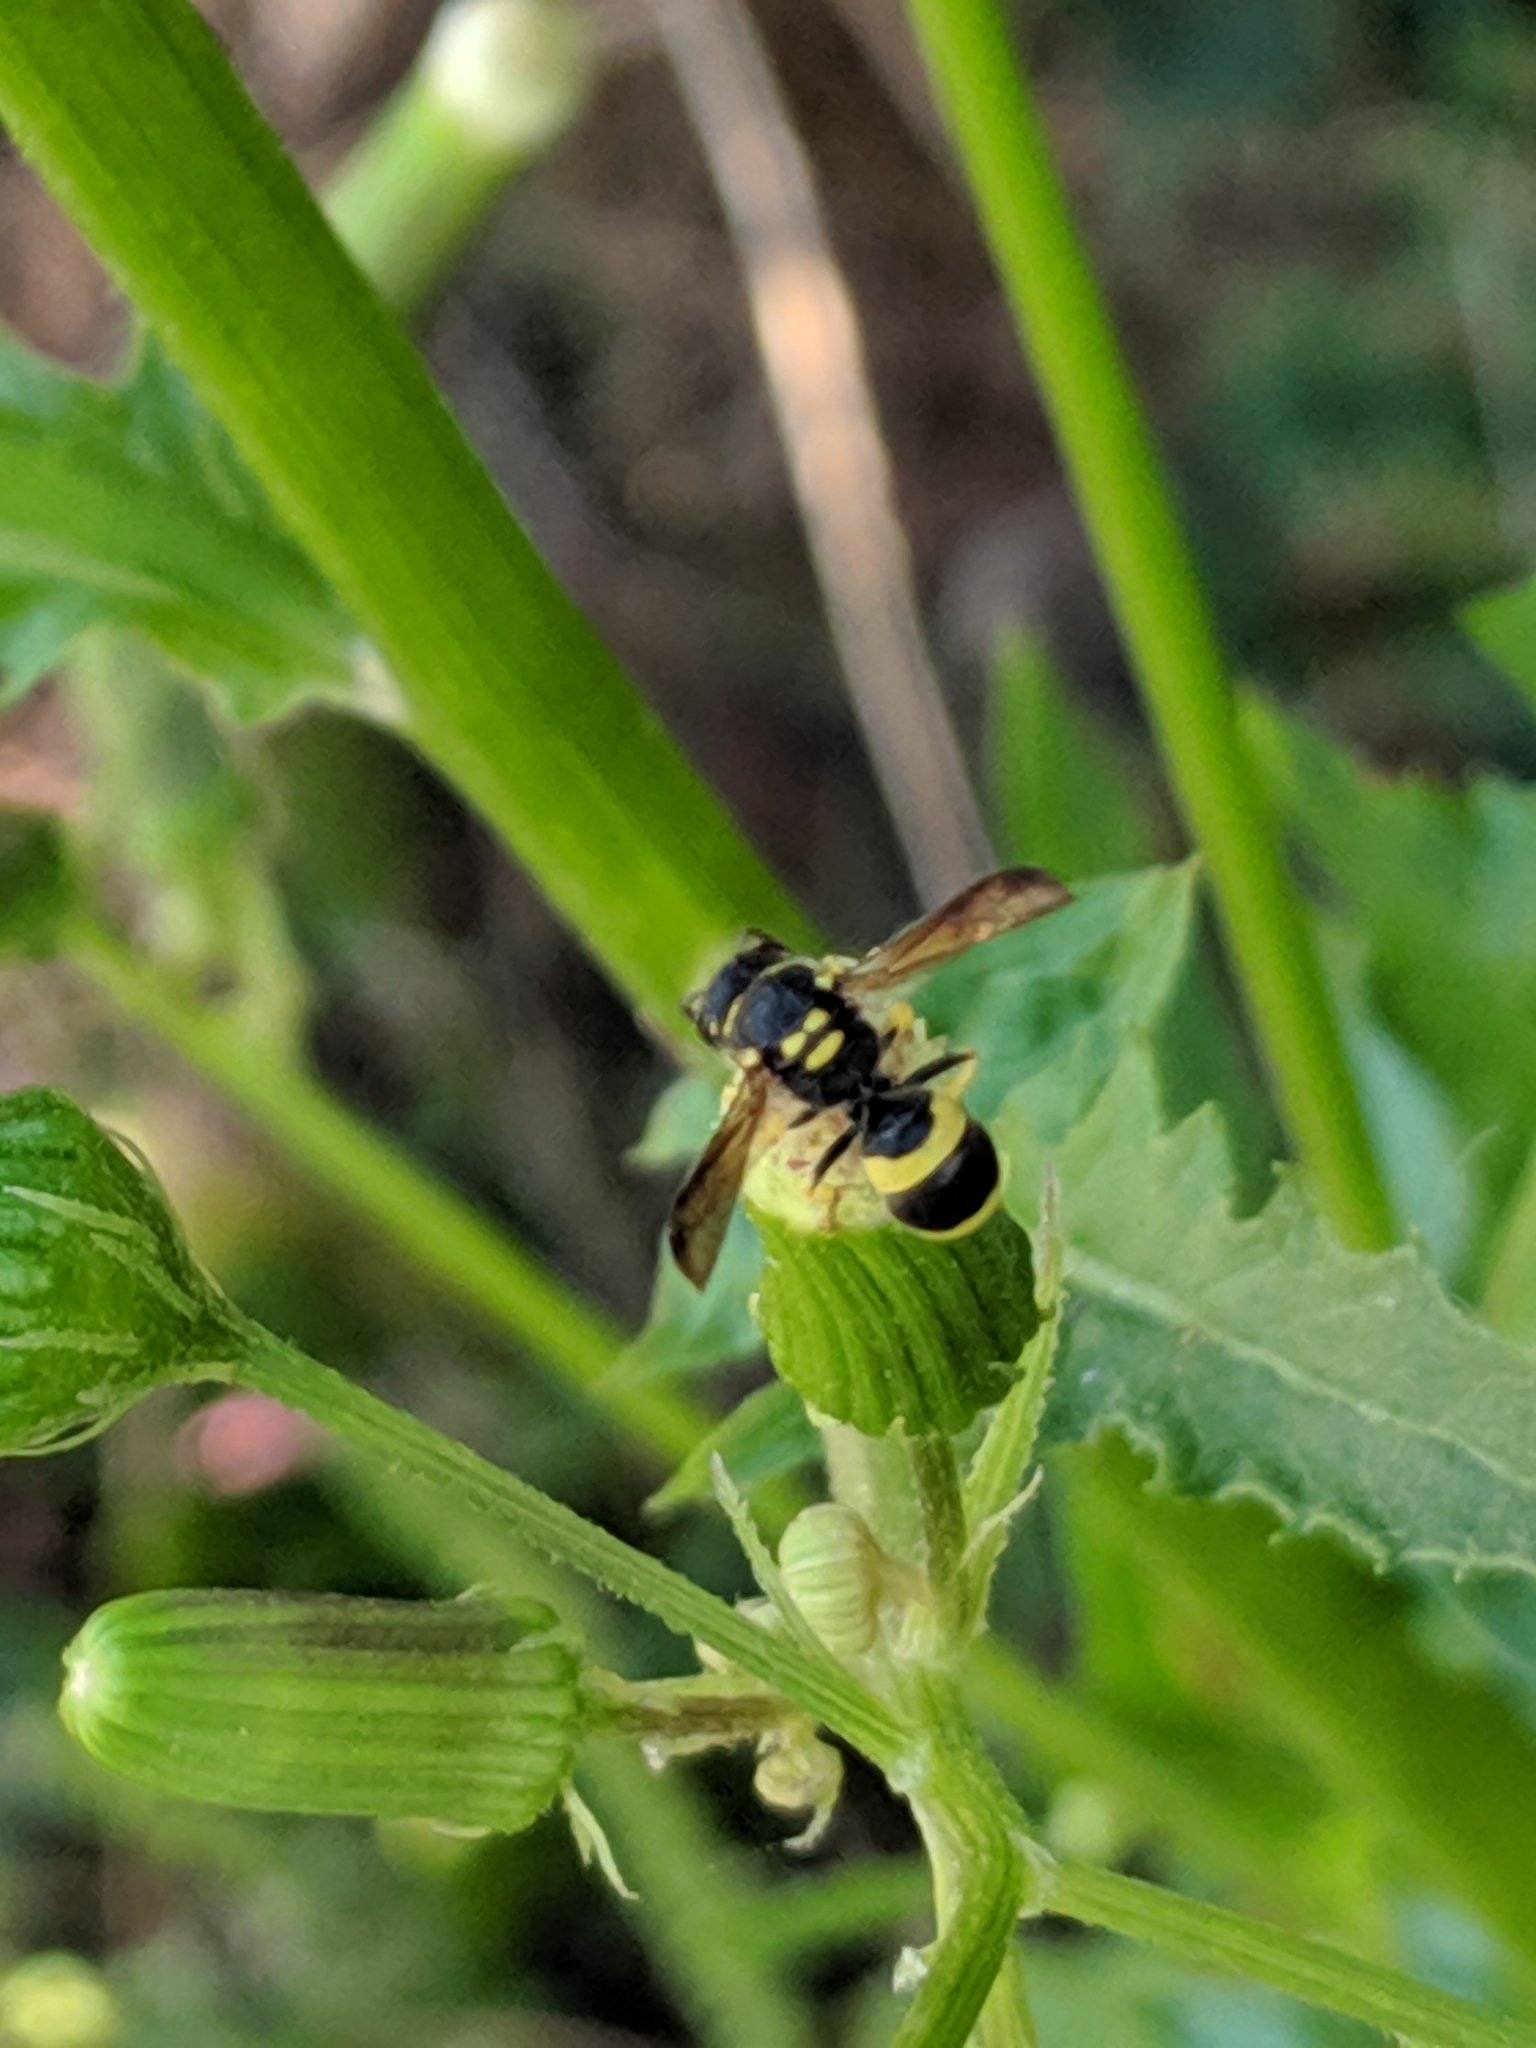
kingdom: Animalia
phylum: Arthropoda
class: Insecta
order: Hymenoptera
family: Vespidae
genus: Ancistrocerus
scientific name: Ancistrocerus gazella
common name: European tube wasp
